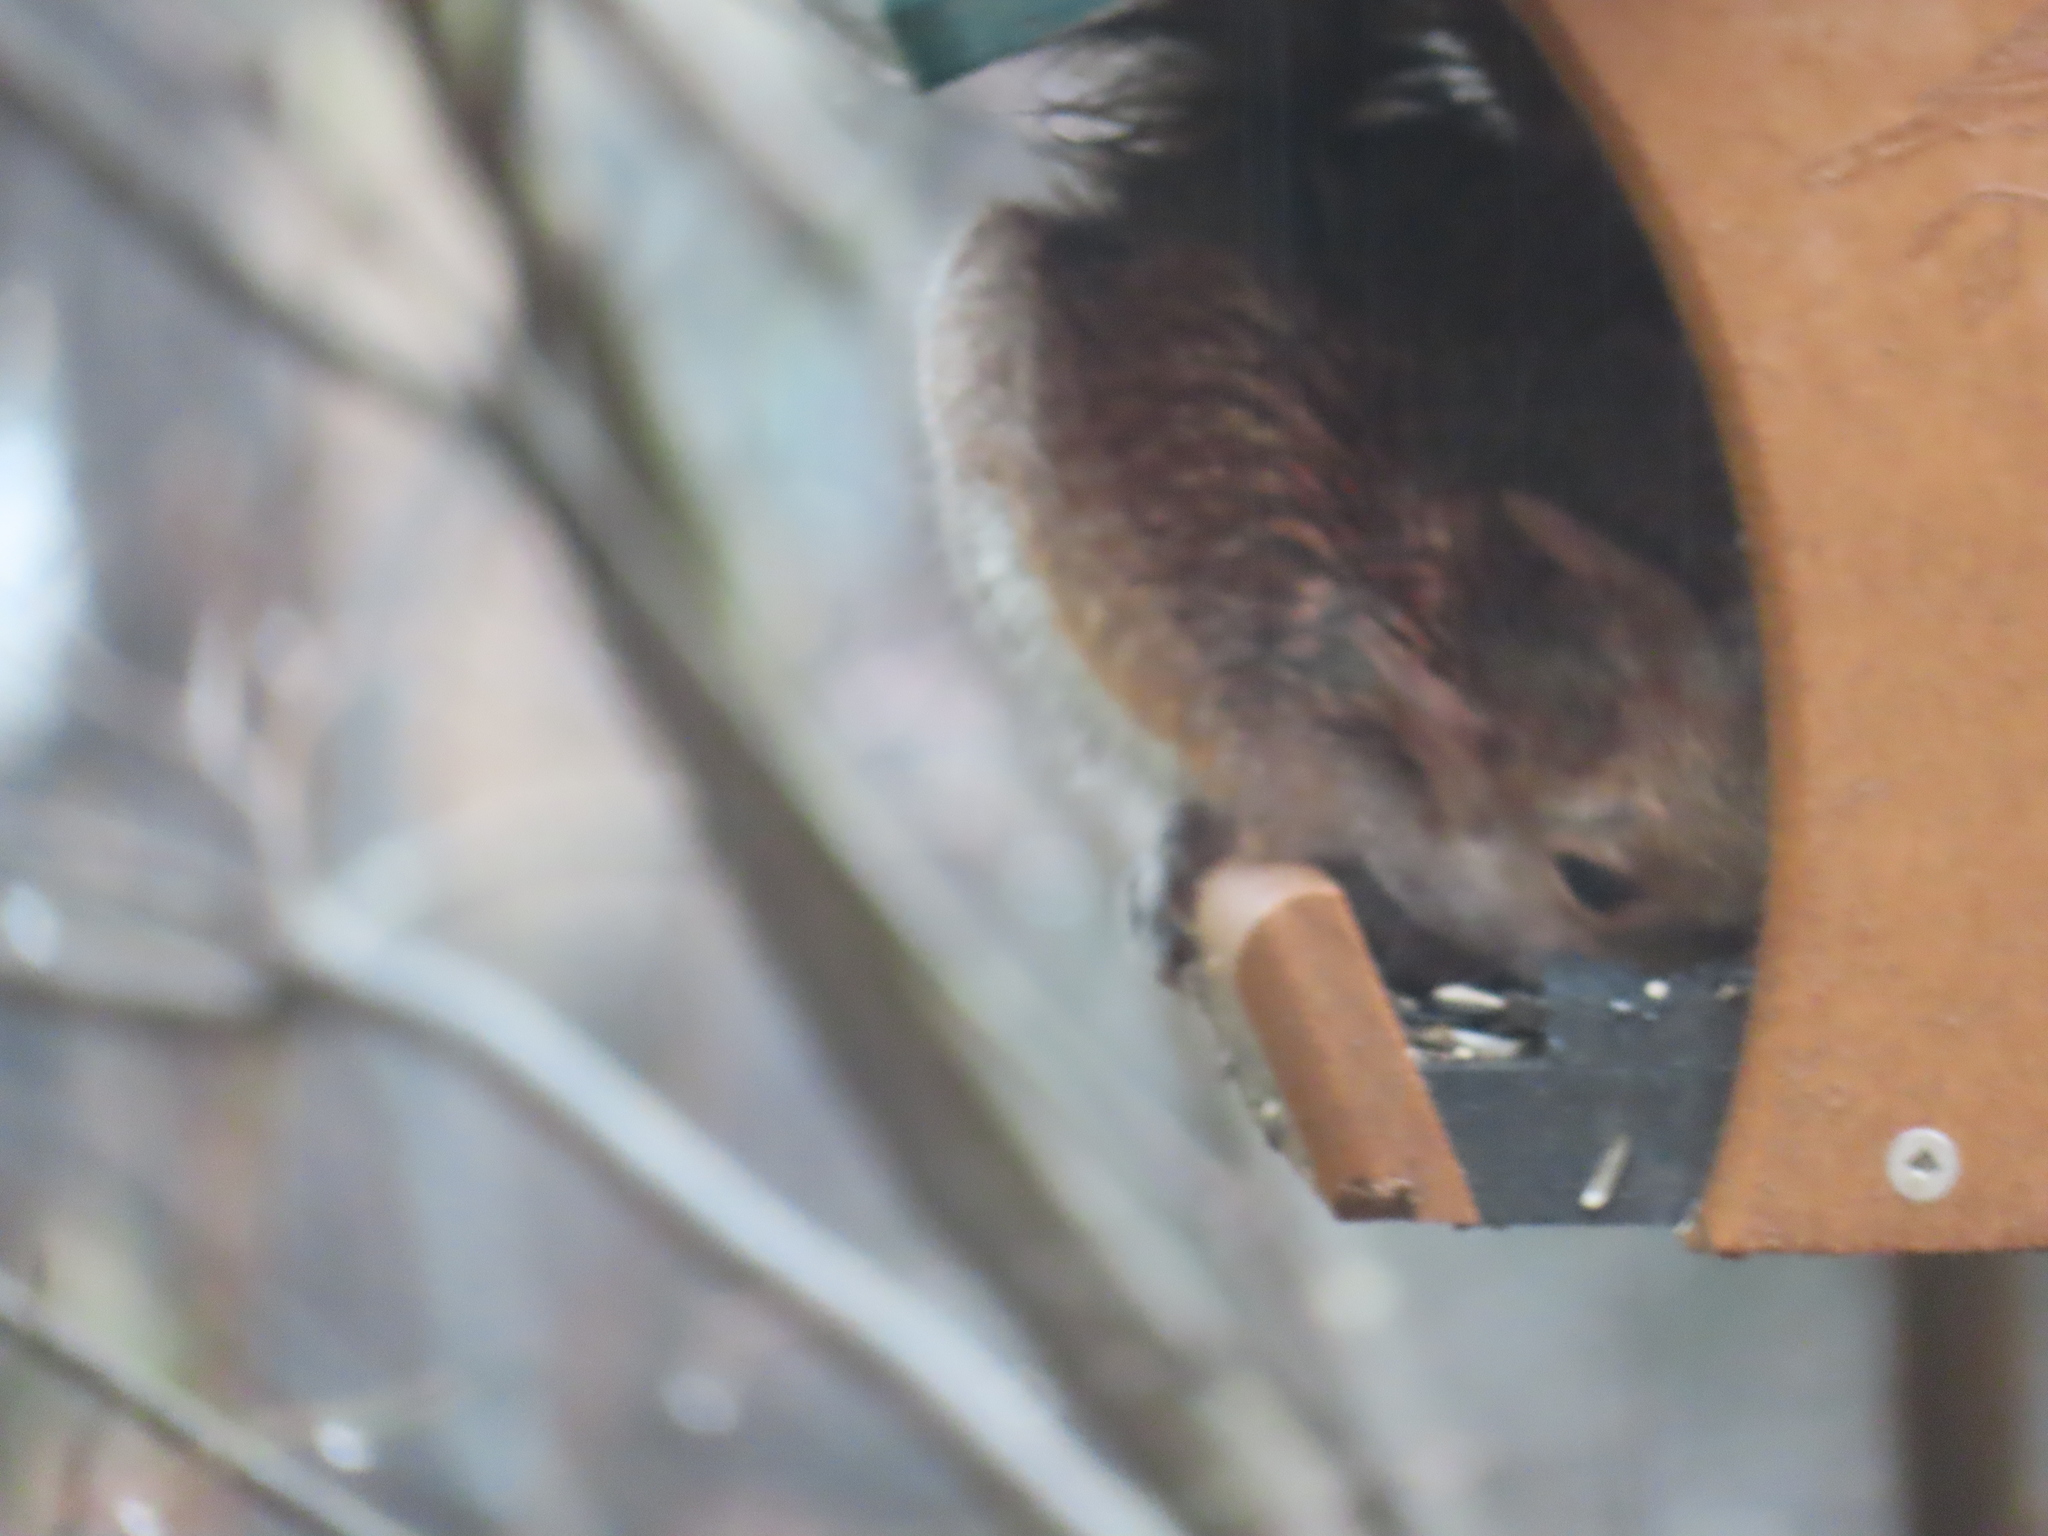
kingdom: Animalia
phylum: Chordata
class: Mammalia
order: Rodentia
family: Sciuridae
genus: Sciurus
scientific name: Sciurus carolinensis
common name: Eastern gray squirrel
